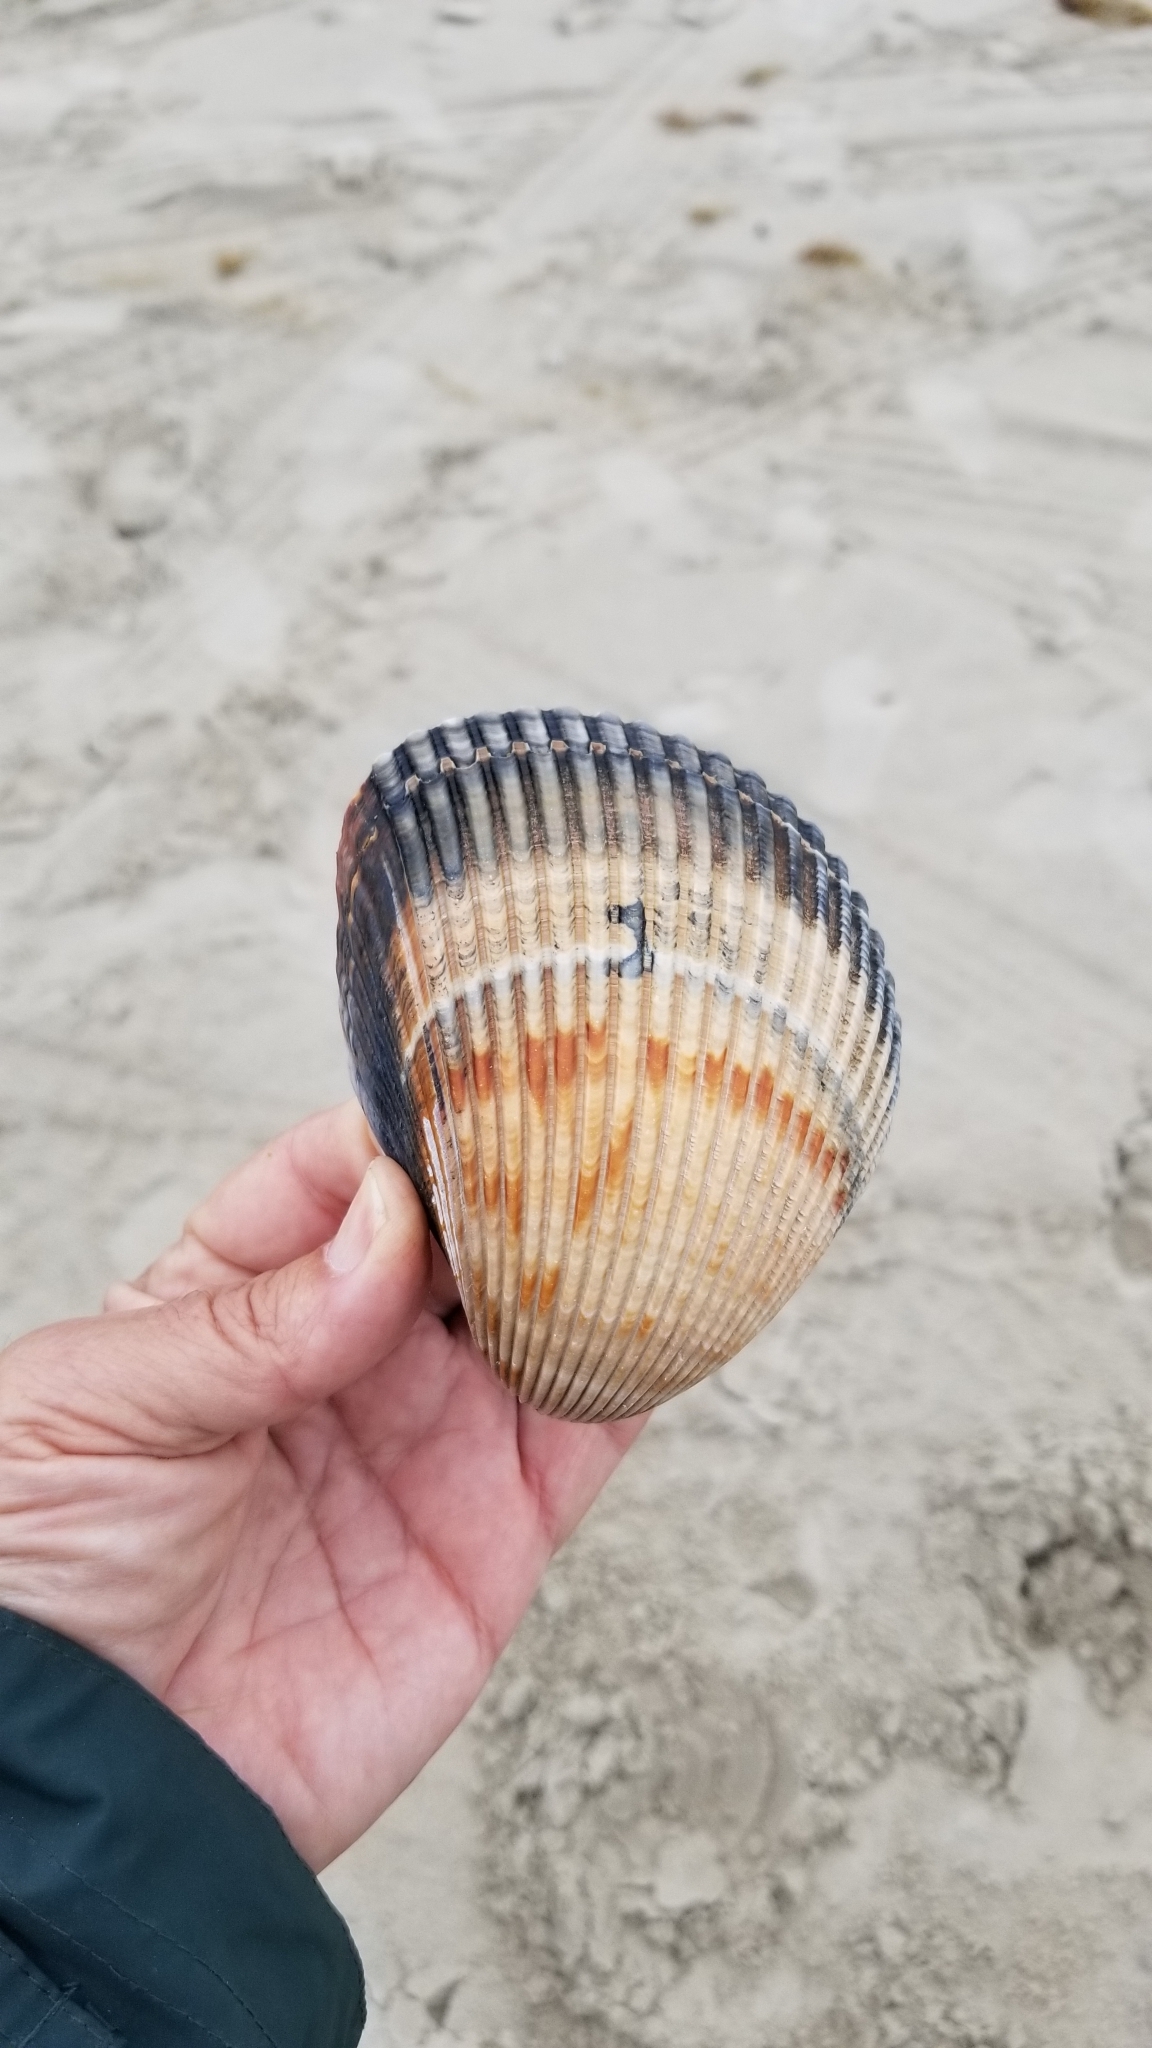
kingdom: Animalia
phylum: Mollusca
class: Bivalvia
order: Cardiida
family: Cardiidae
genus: Dinocardium
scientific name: Dinocardium robustum
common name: Atlantic giant cockle
